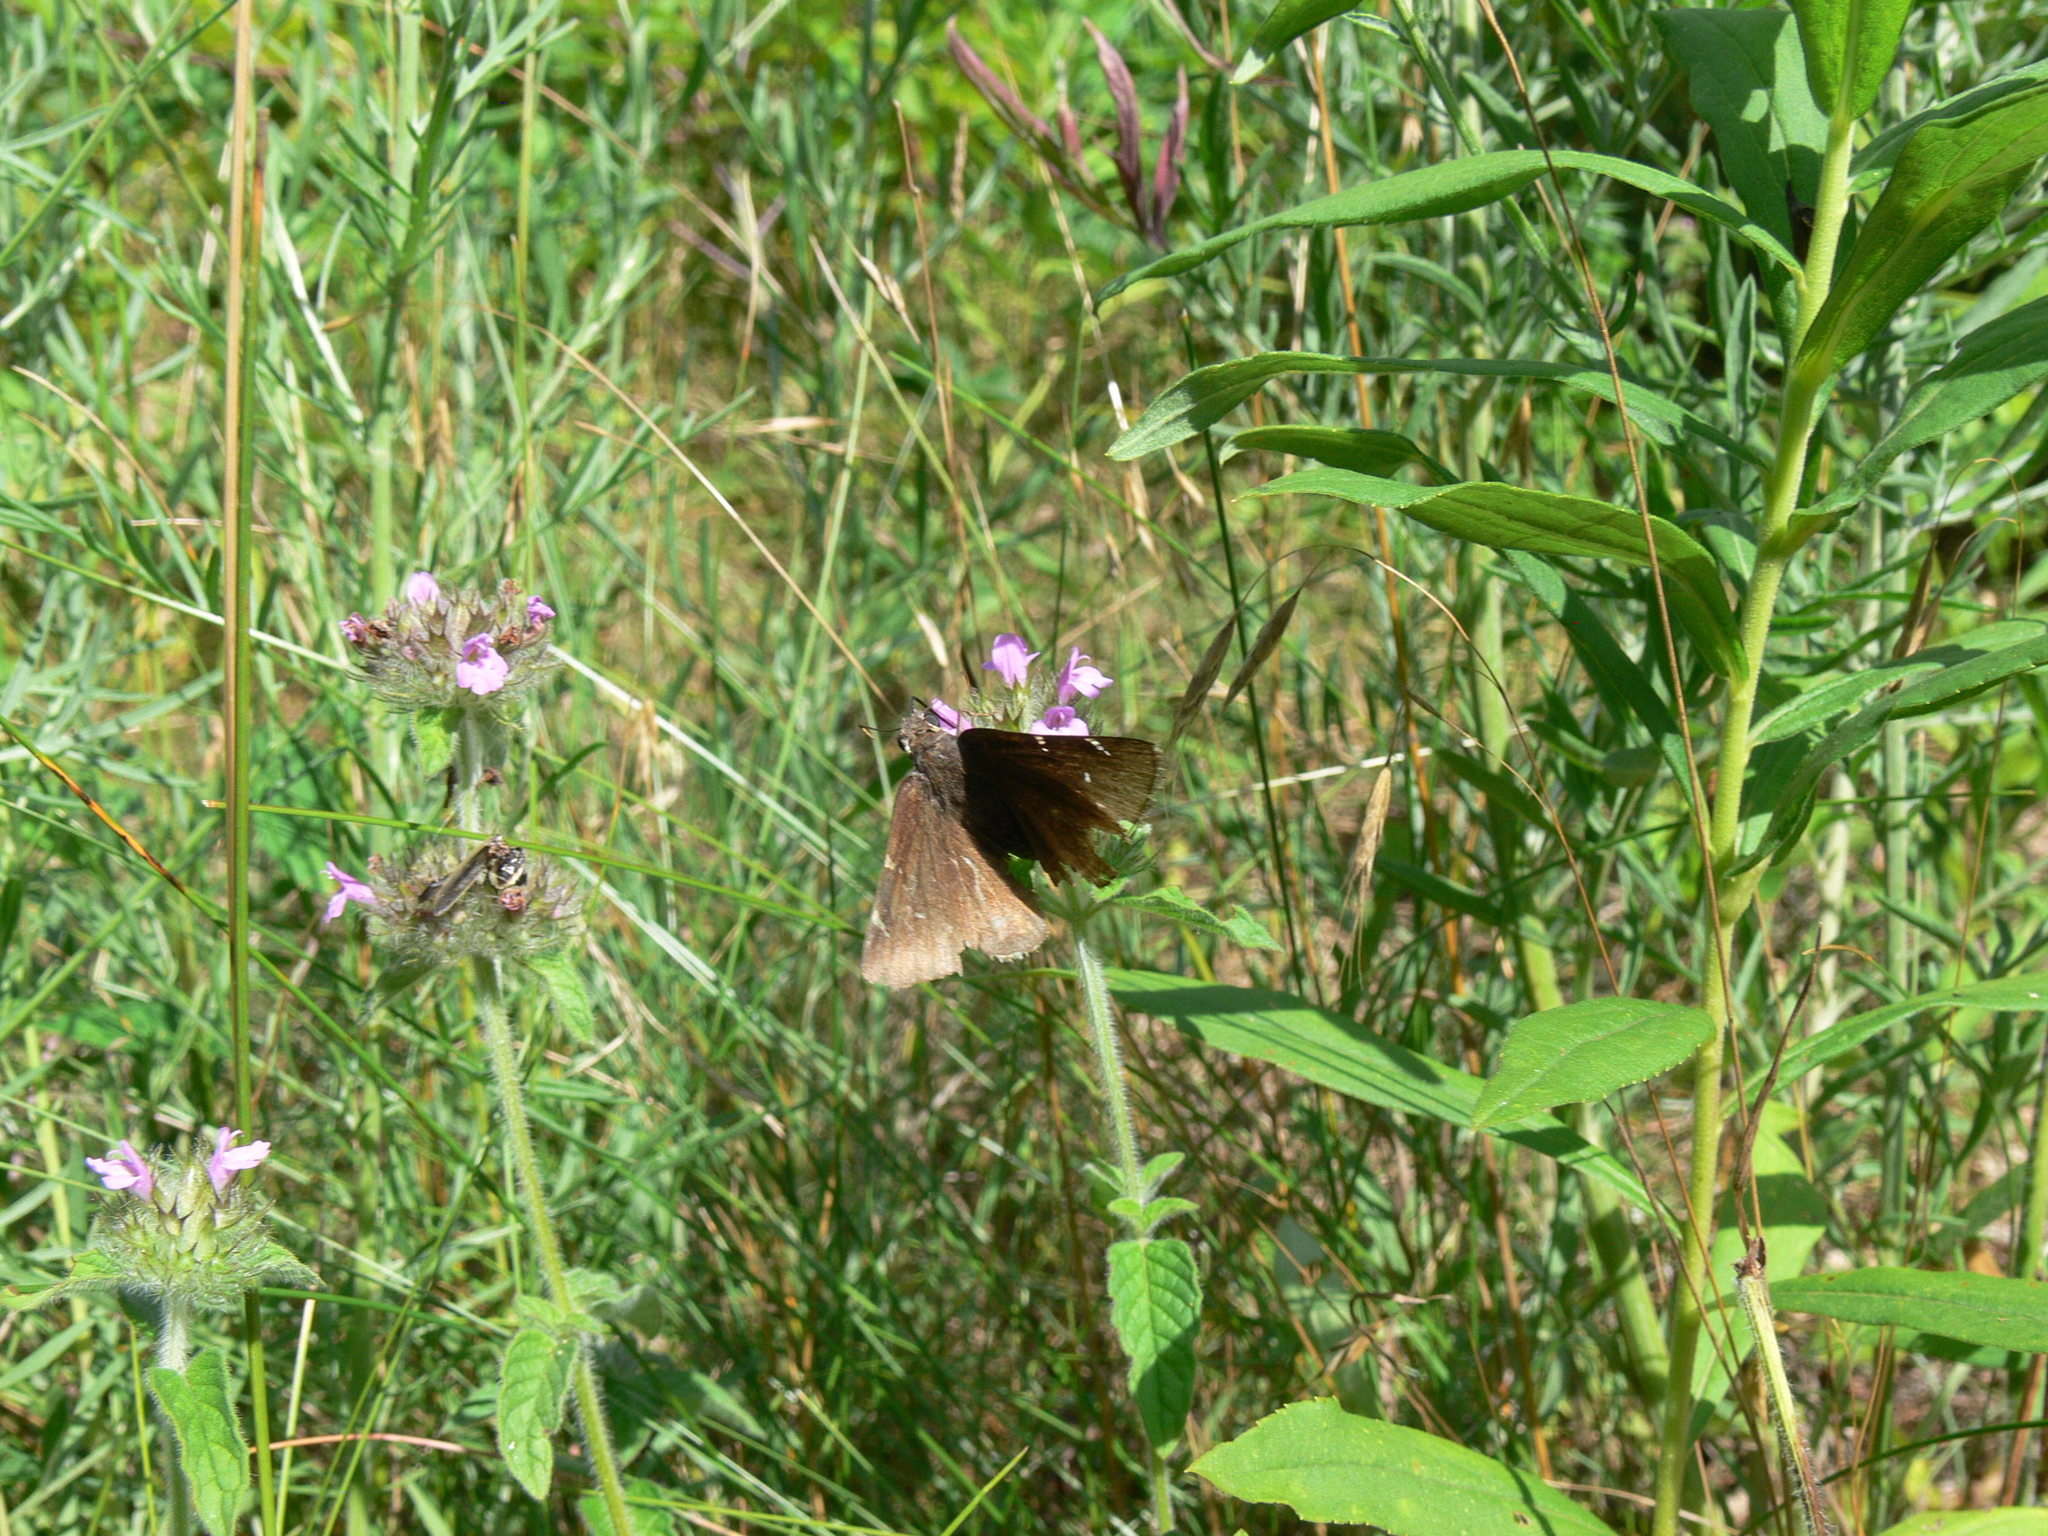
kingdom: Animalia
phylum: Arthropoda
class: Insecta
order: Lepidoptera
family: Hesperiidae
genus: Thorybes
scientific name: Thorybes pylades
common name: Northern cloudywing
